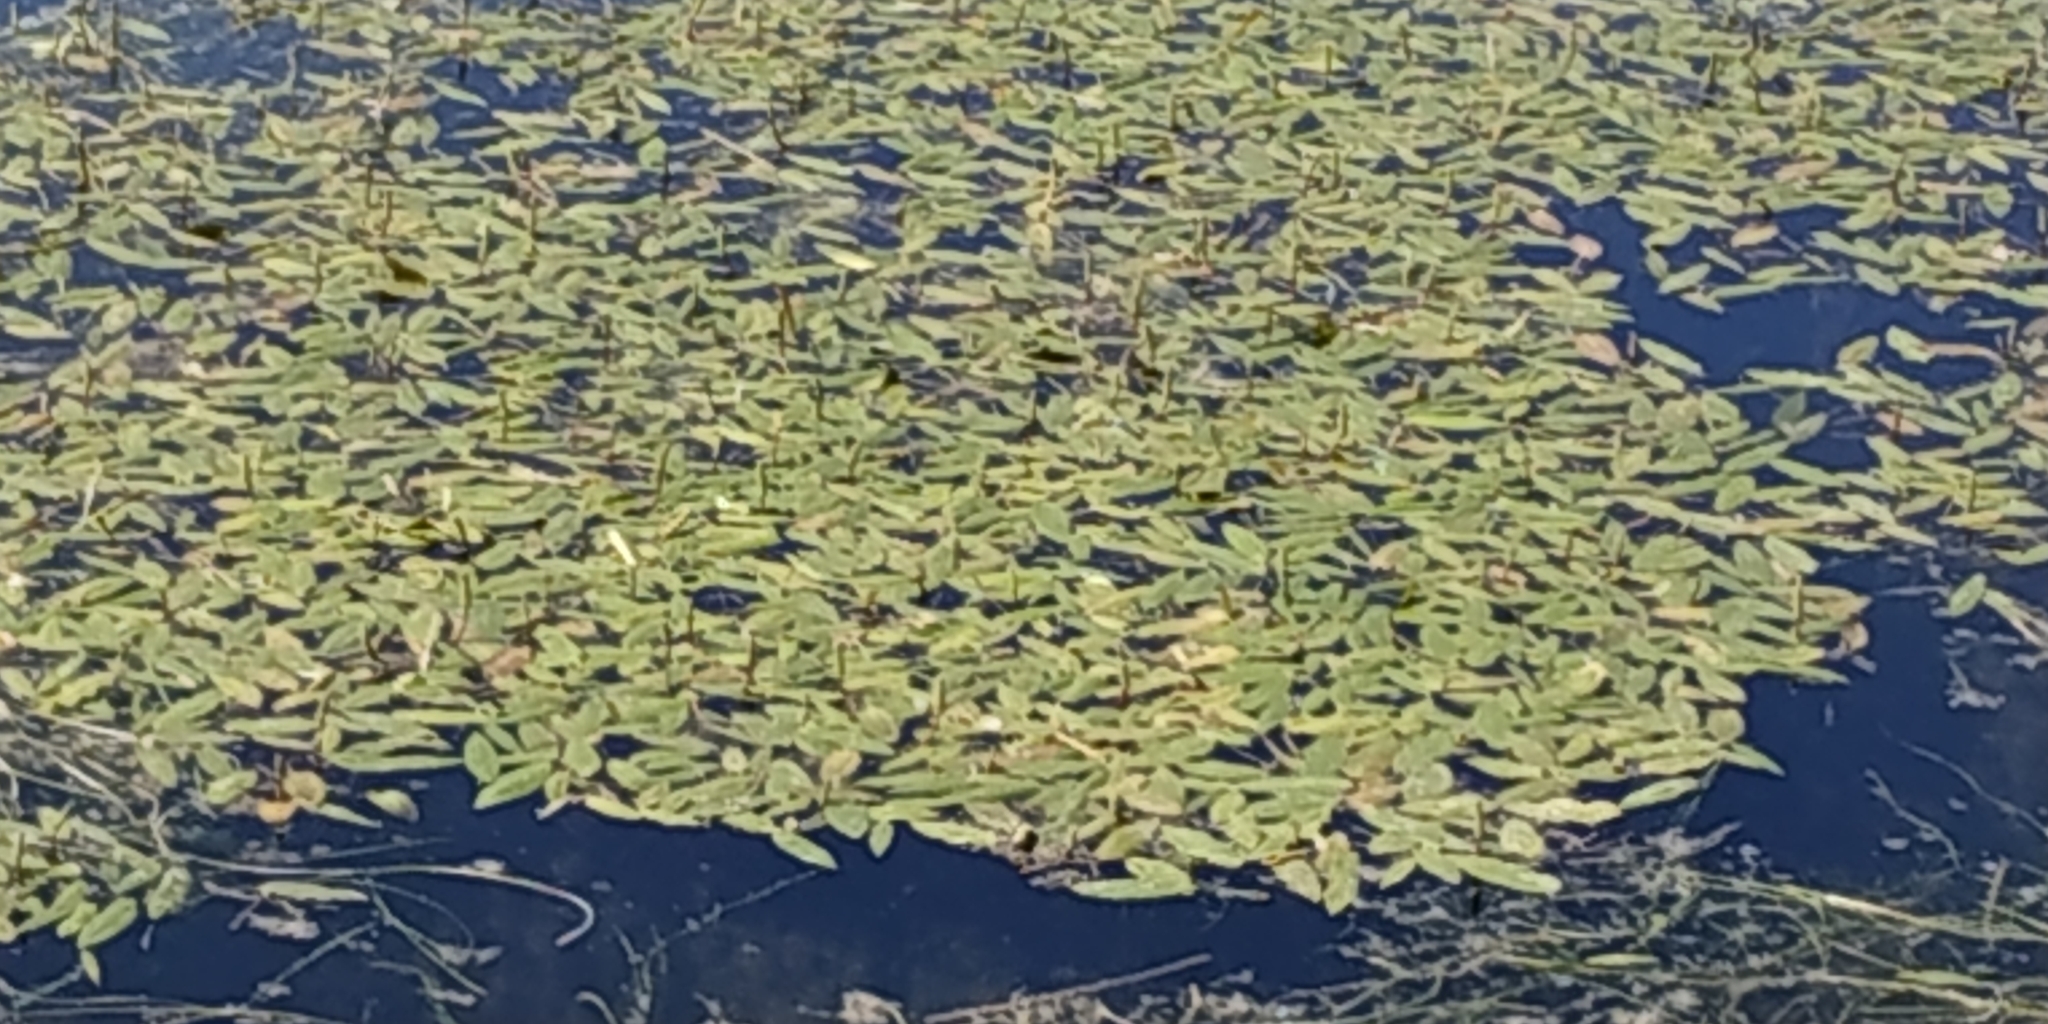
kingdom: Plantae
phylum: Tracheophyta
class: Liliopsida
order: Alismatales
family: Potamogetonaceae
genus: Potamogeton
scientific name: Potamogeton natans
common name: Broad-leaved pondweed
